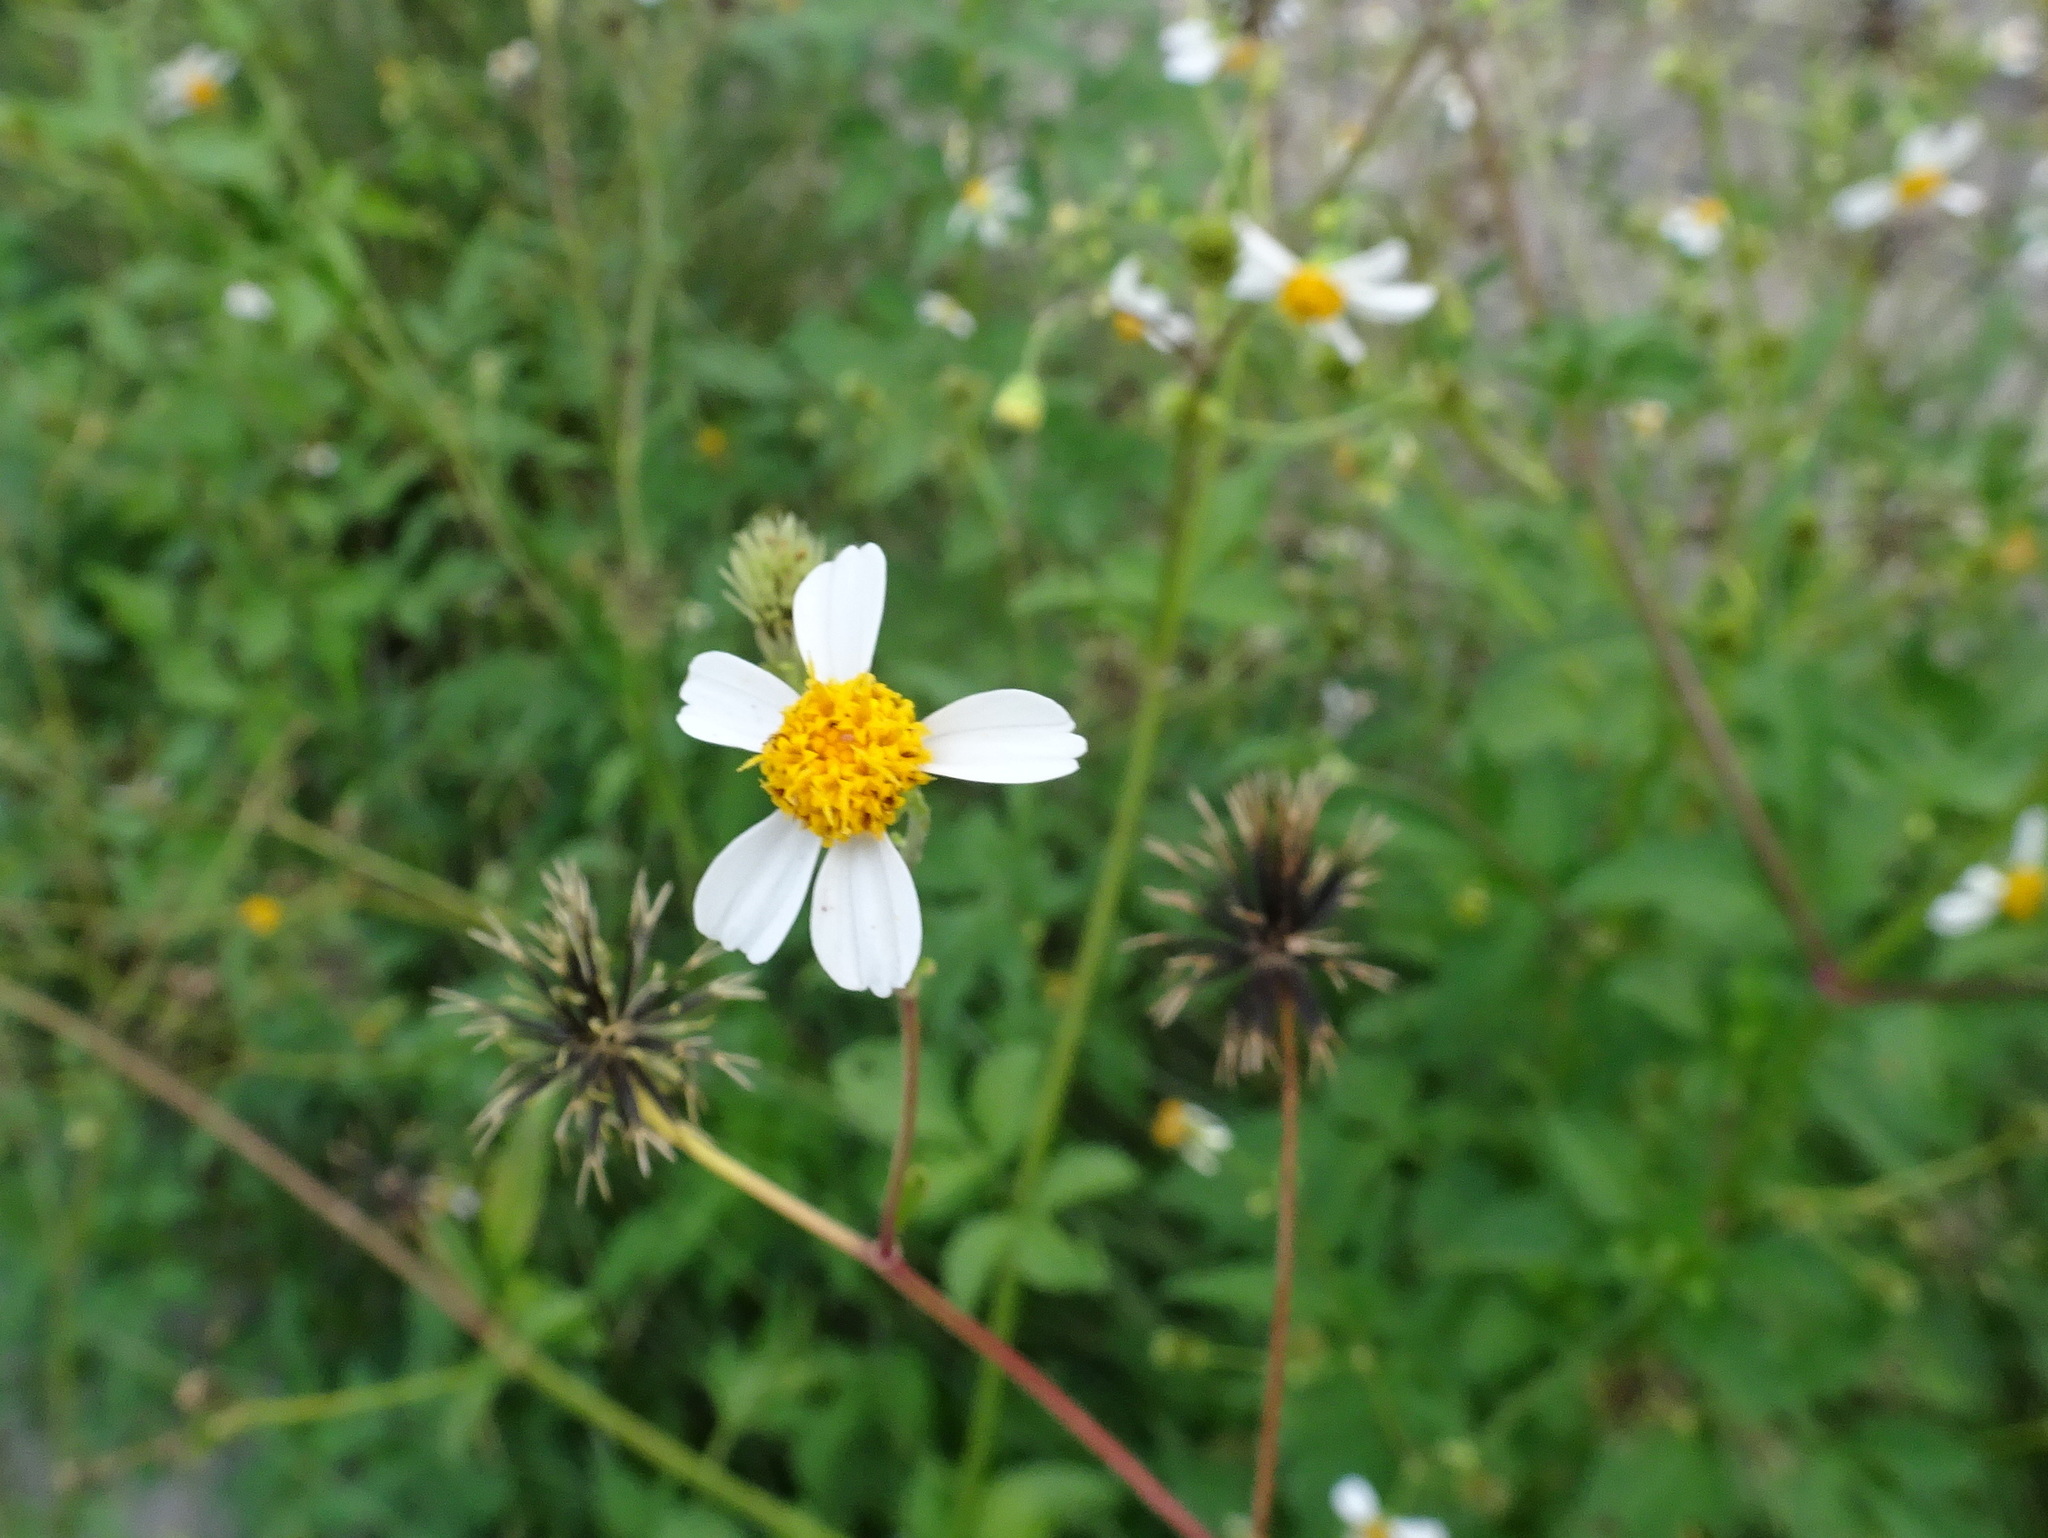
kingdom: Plantae
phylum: Tracheophyta
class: Magnoliopsida
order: Asterales
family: Asteraceae
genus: Bidens
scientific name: Bidens alba
